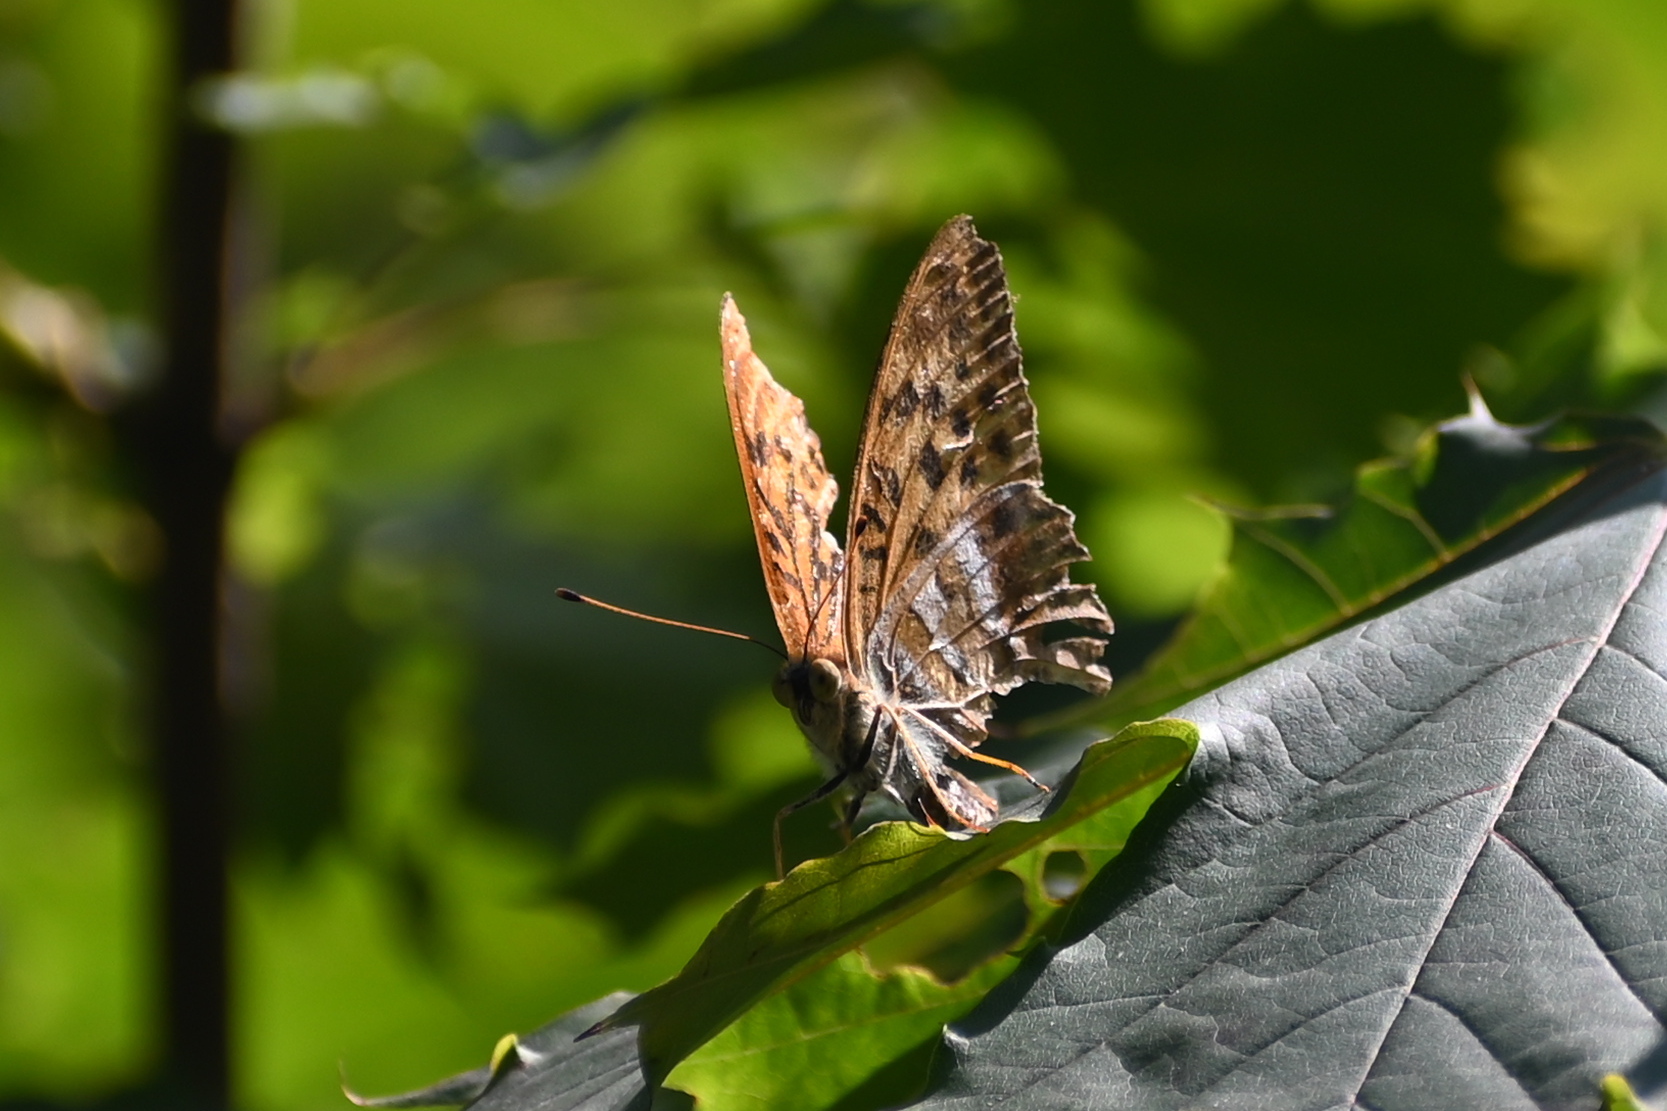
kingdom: Animalia
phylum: Arthropoda
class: Insecta
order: Lepidoptera
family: Nymphalidae
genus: Argynnis
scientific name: Argynnis paphia
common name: Silver-washed fritillary
